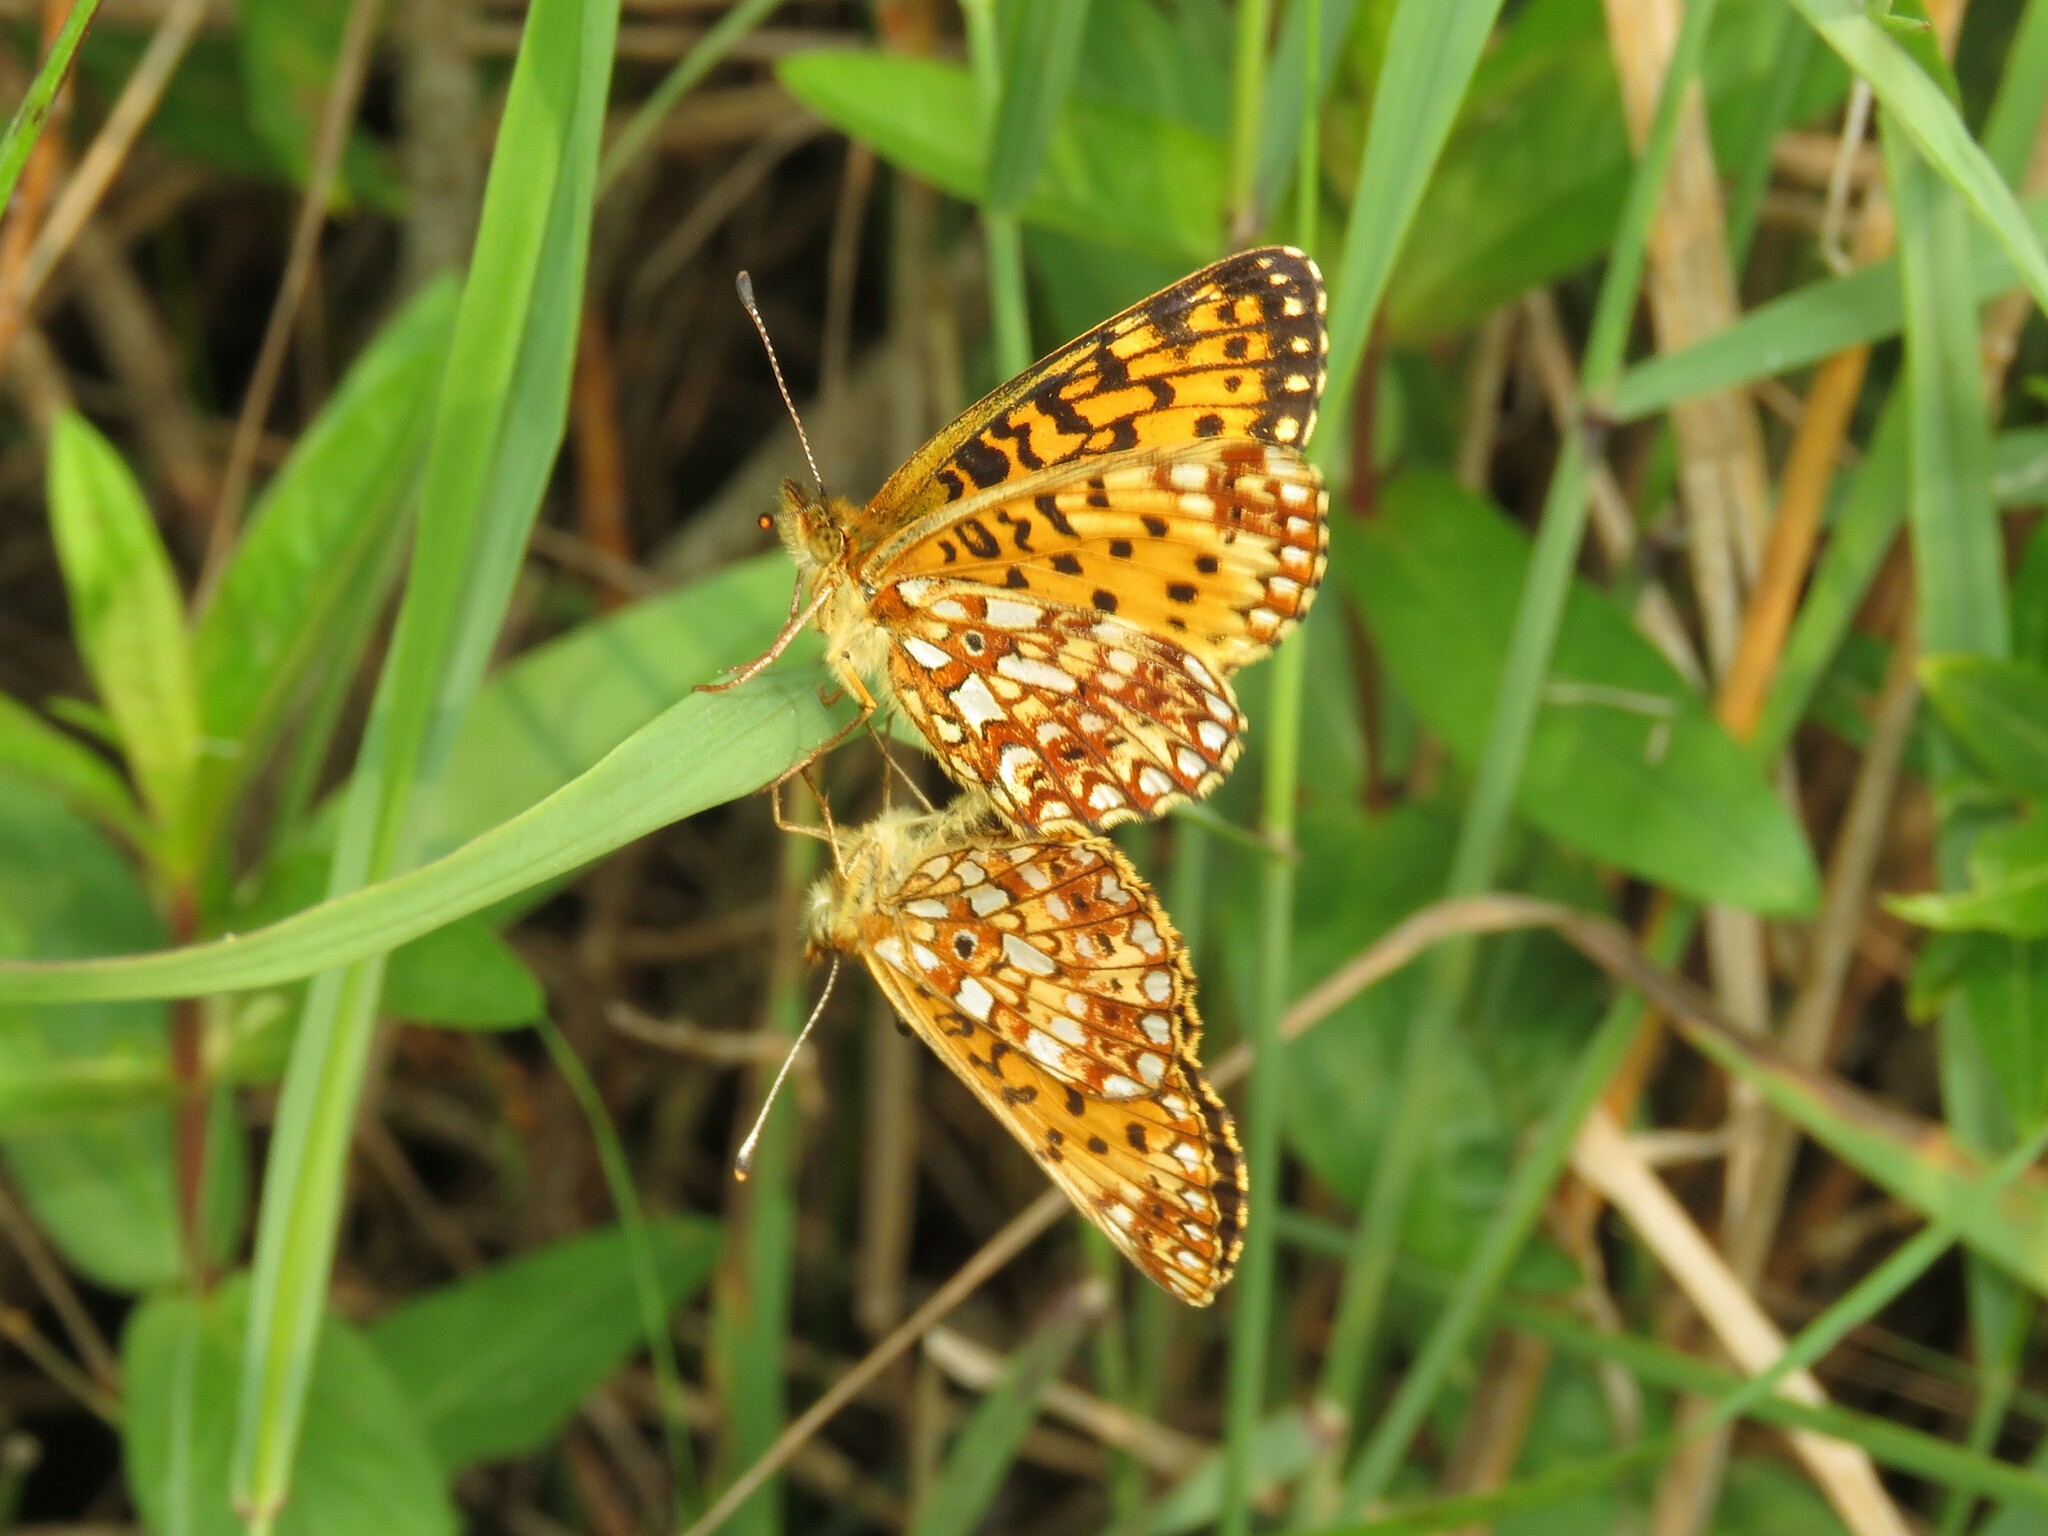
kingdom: Animalia
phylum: Arthropoda
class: Insecta
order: Lepidoptera
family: Nymphalidae
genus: Boloria
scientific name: Boloria
